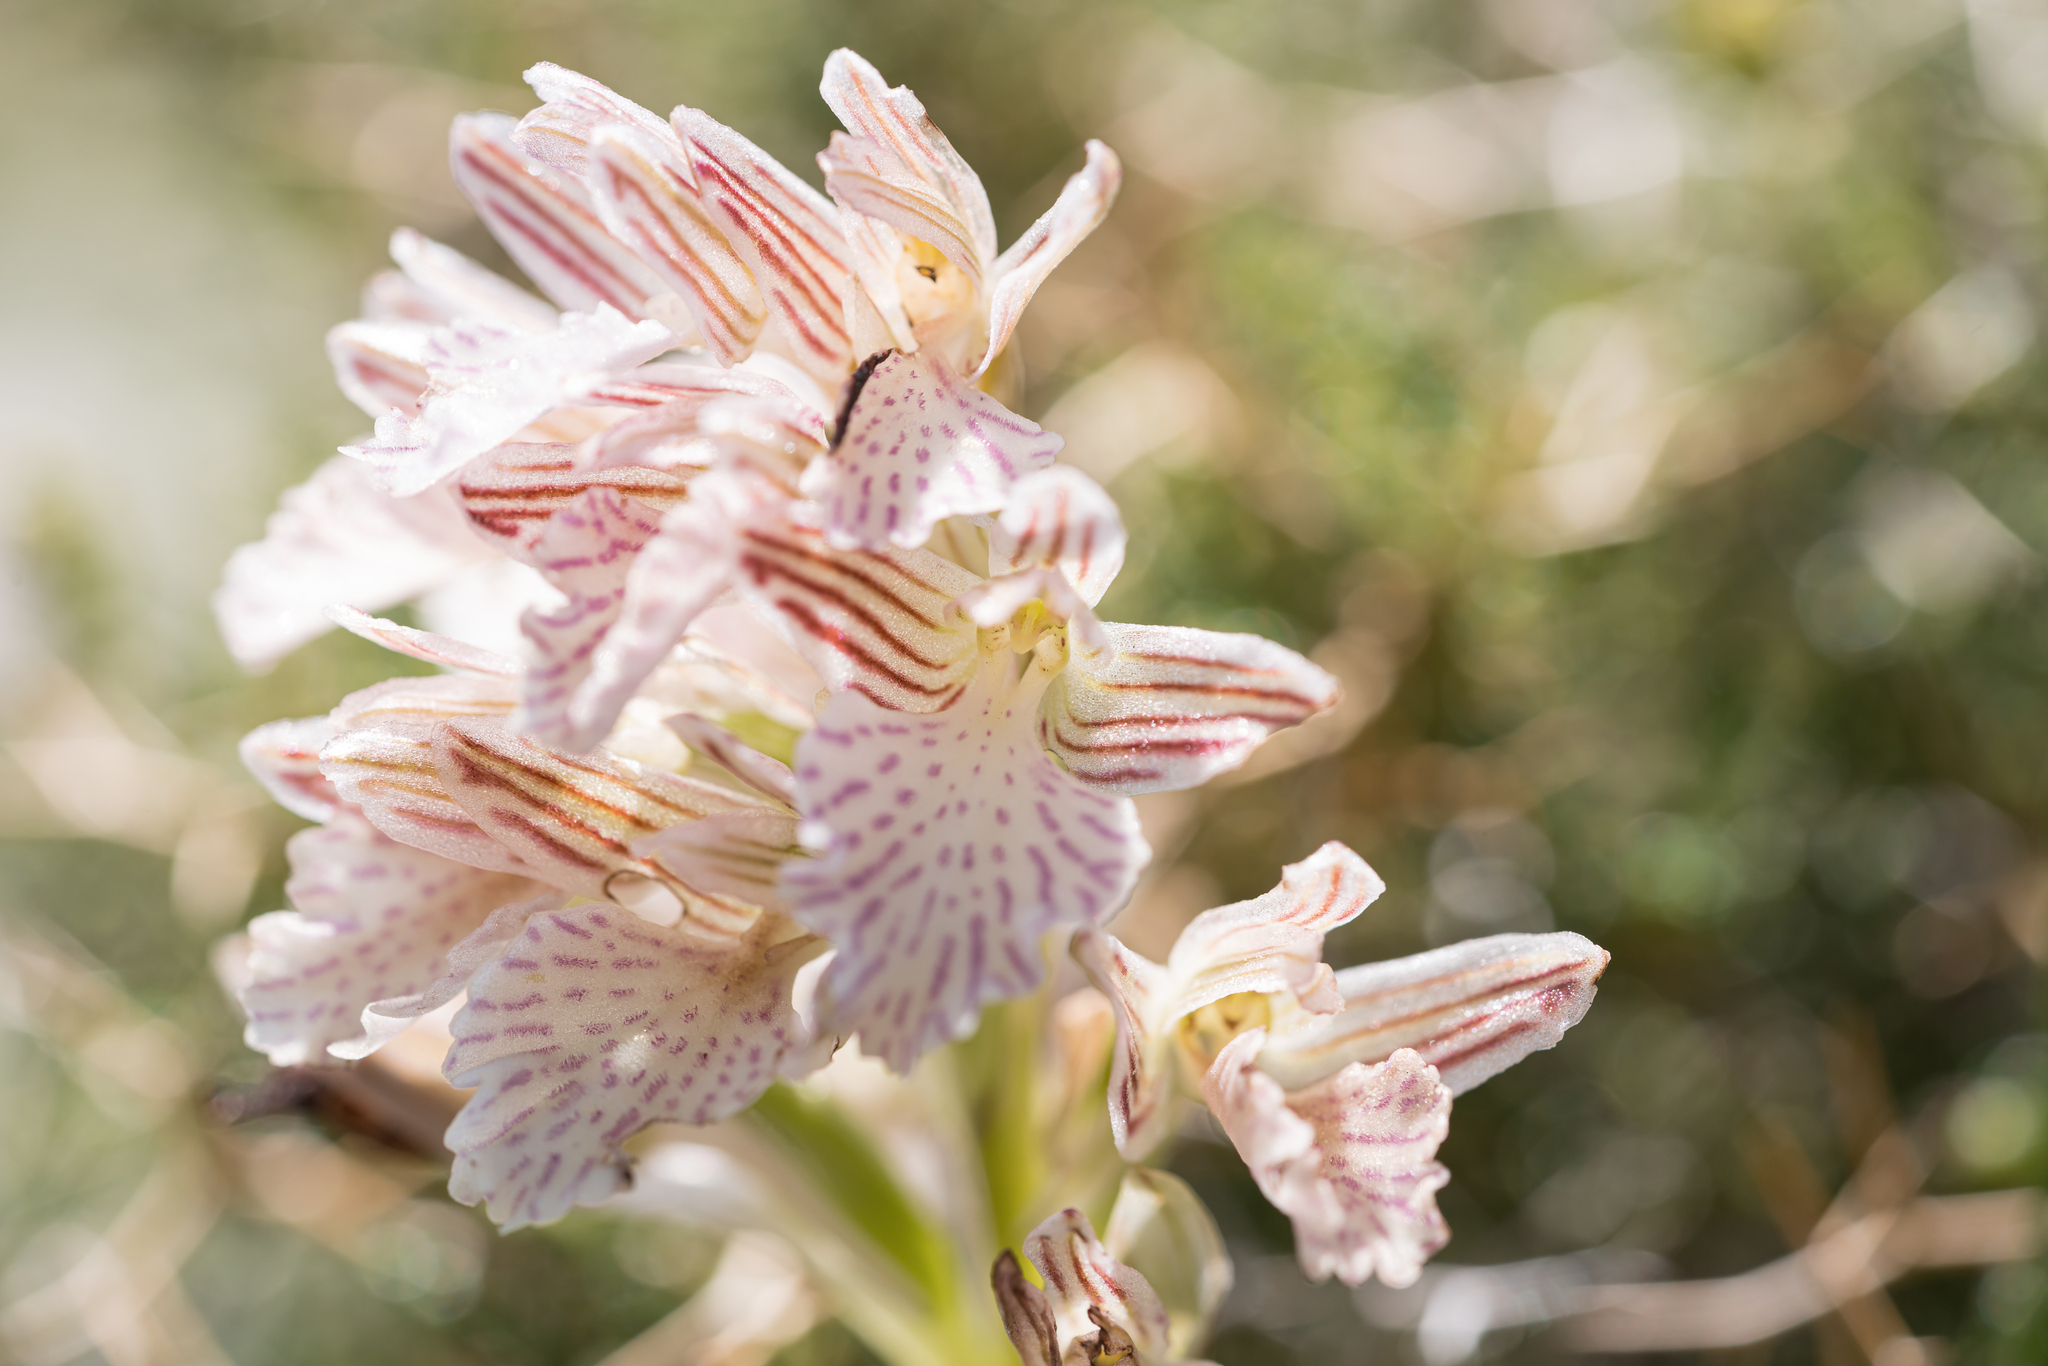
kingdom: Plantae
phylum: Tracheophyta
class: Liliopsida
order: Asparagales
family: Orchidaceae
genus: Anacamptis
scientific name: Anacamptis papilionacea
